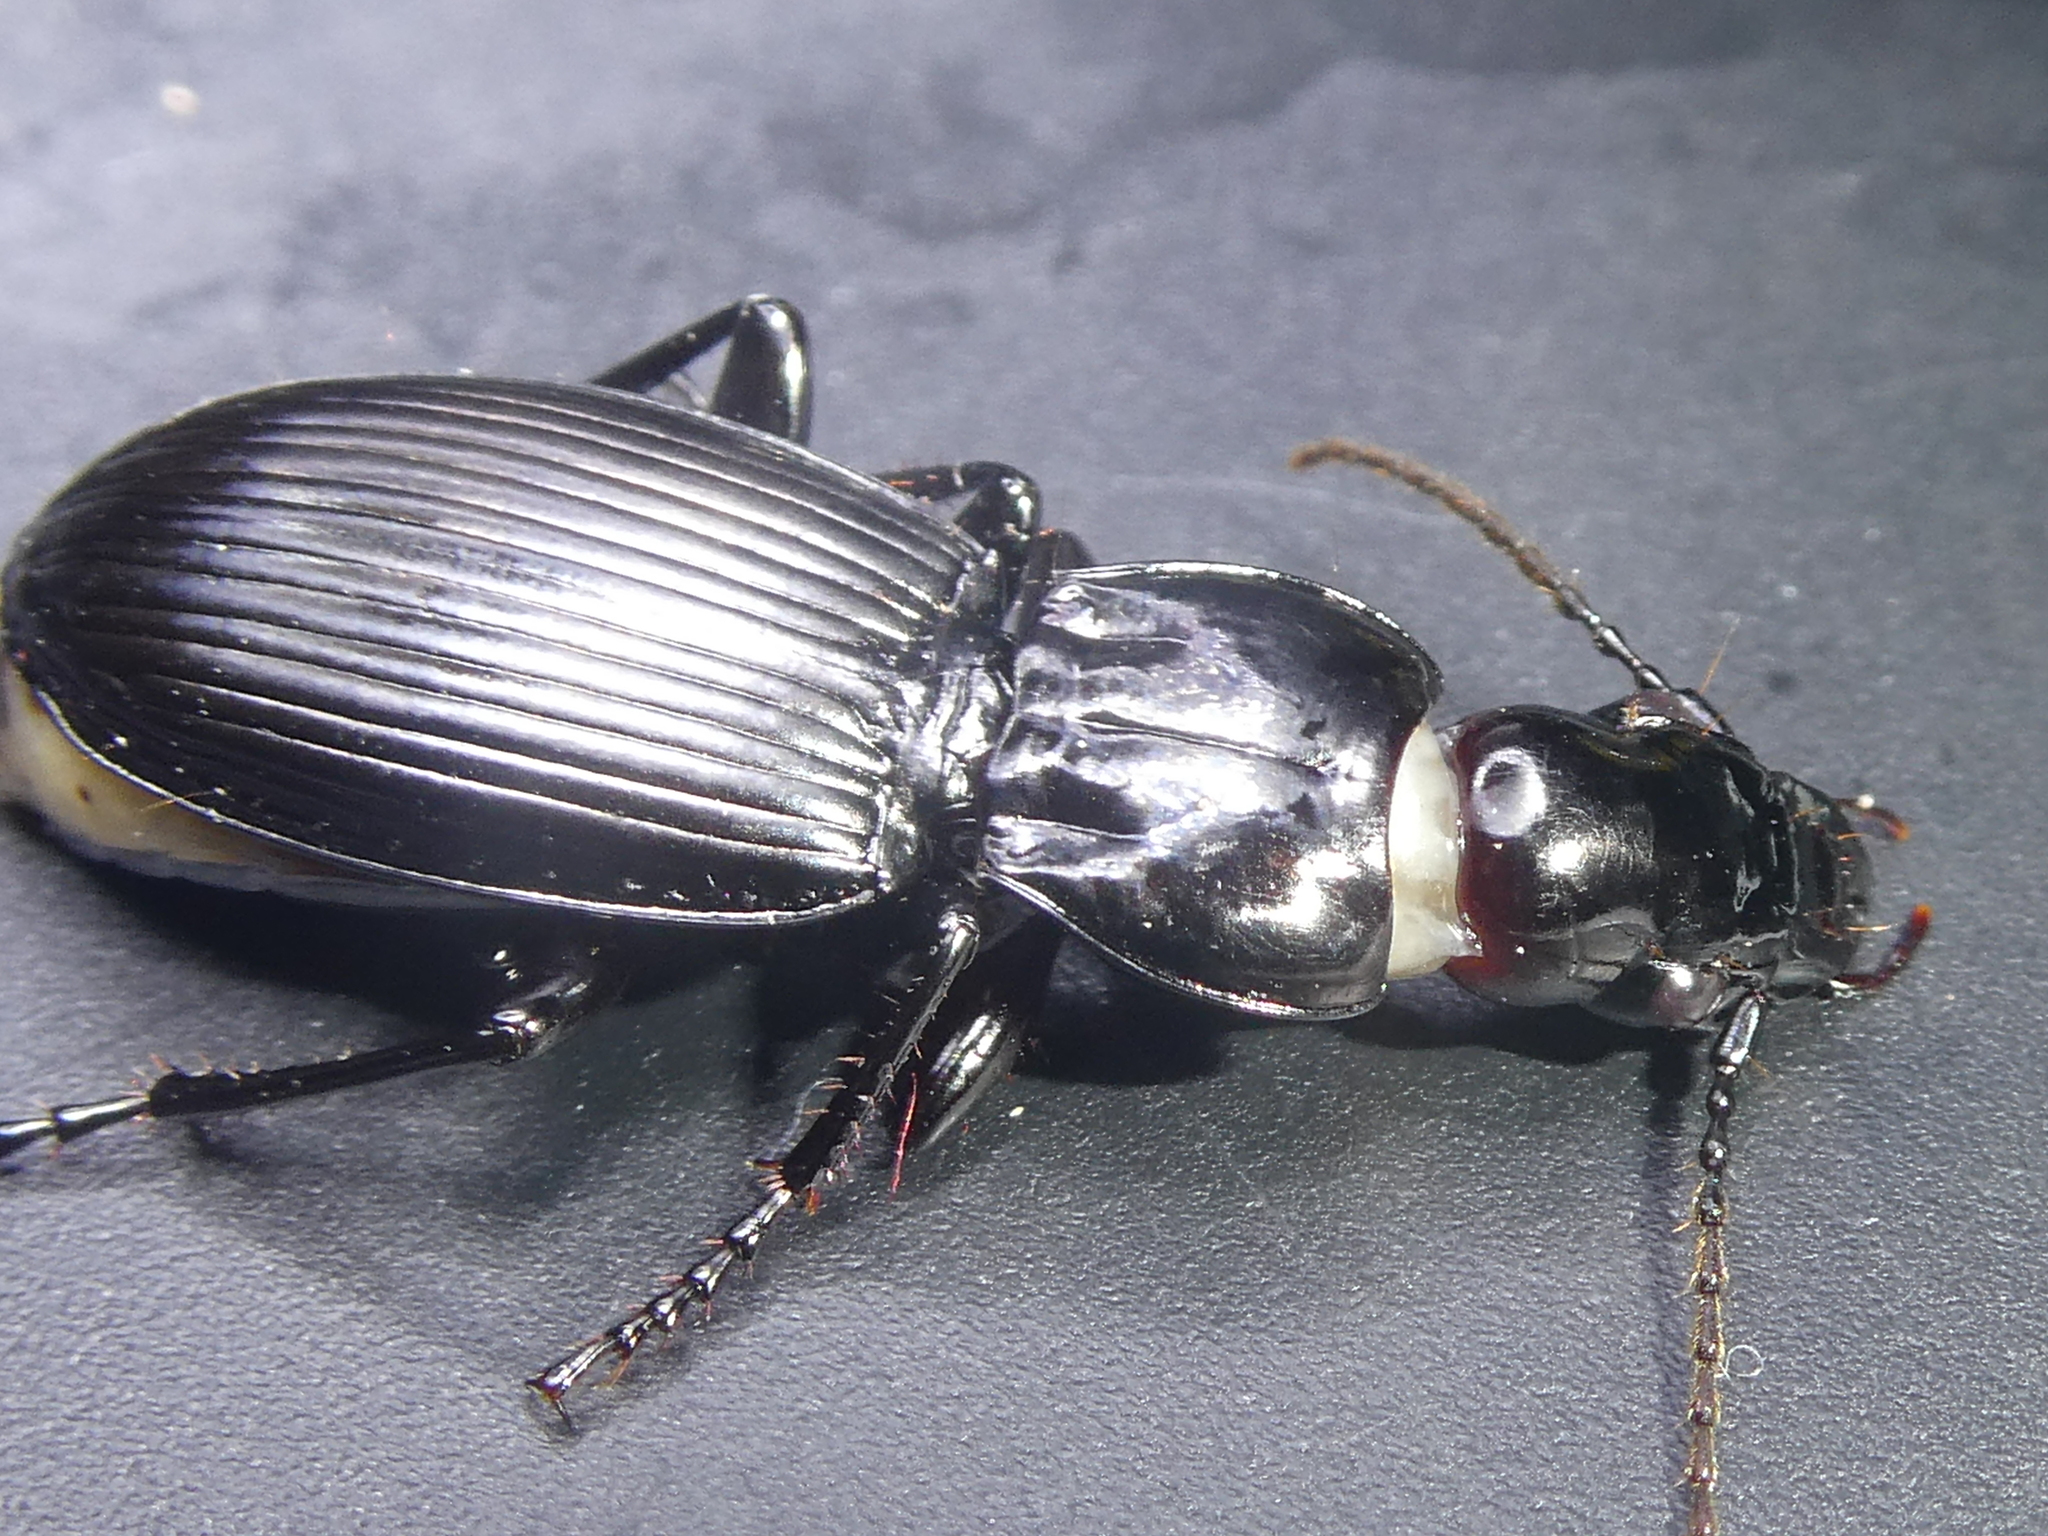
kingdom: Animalia
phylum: Arthropoda
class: Insecta
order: Coleoptera
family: Carabidae
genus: Neoferonia
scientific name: Neoferonia ardua
